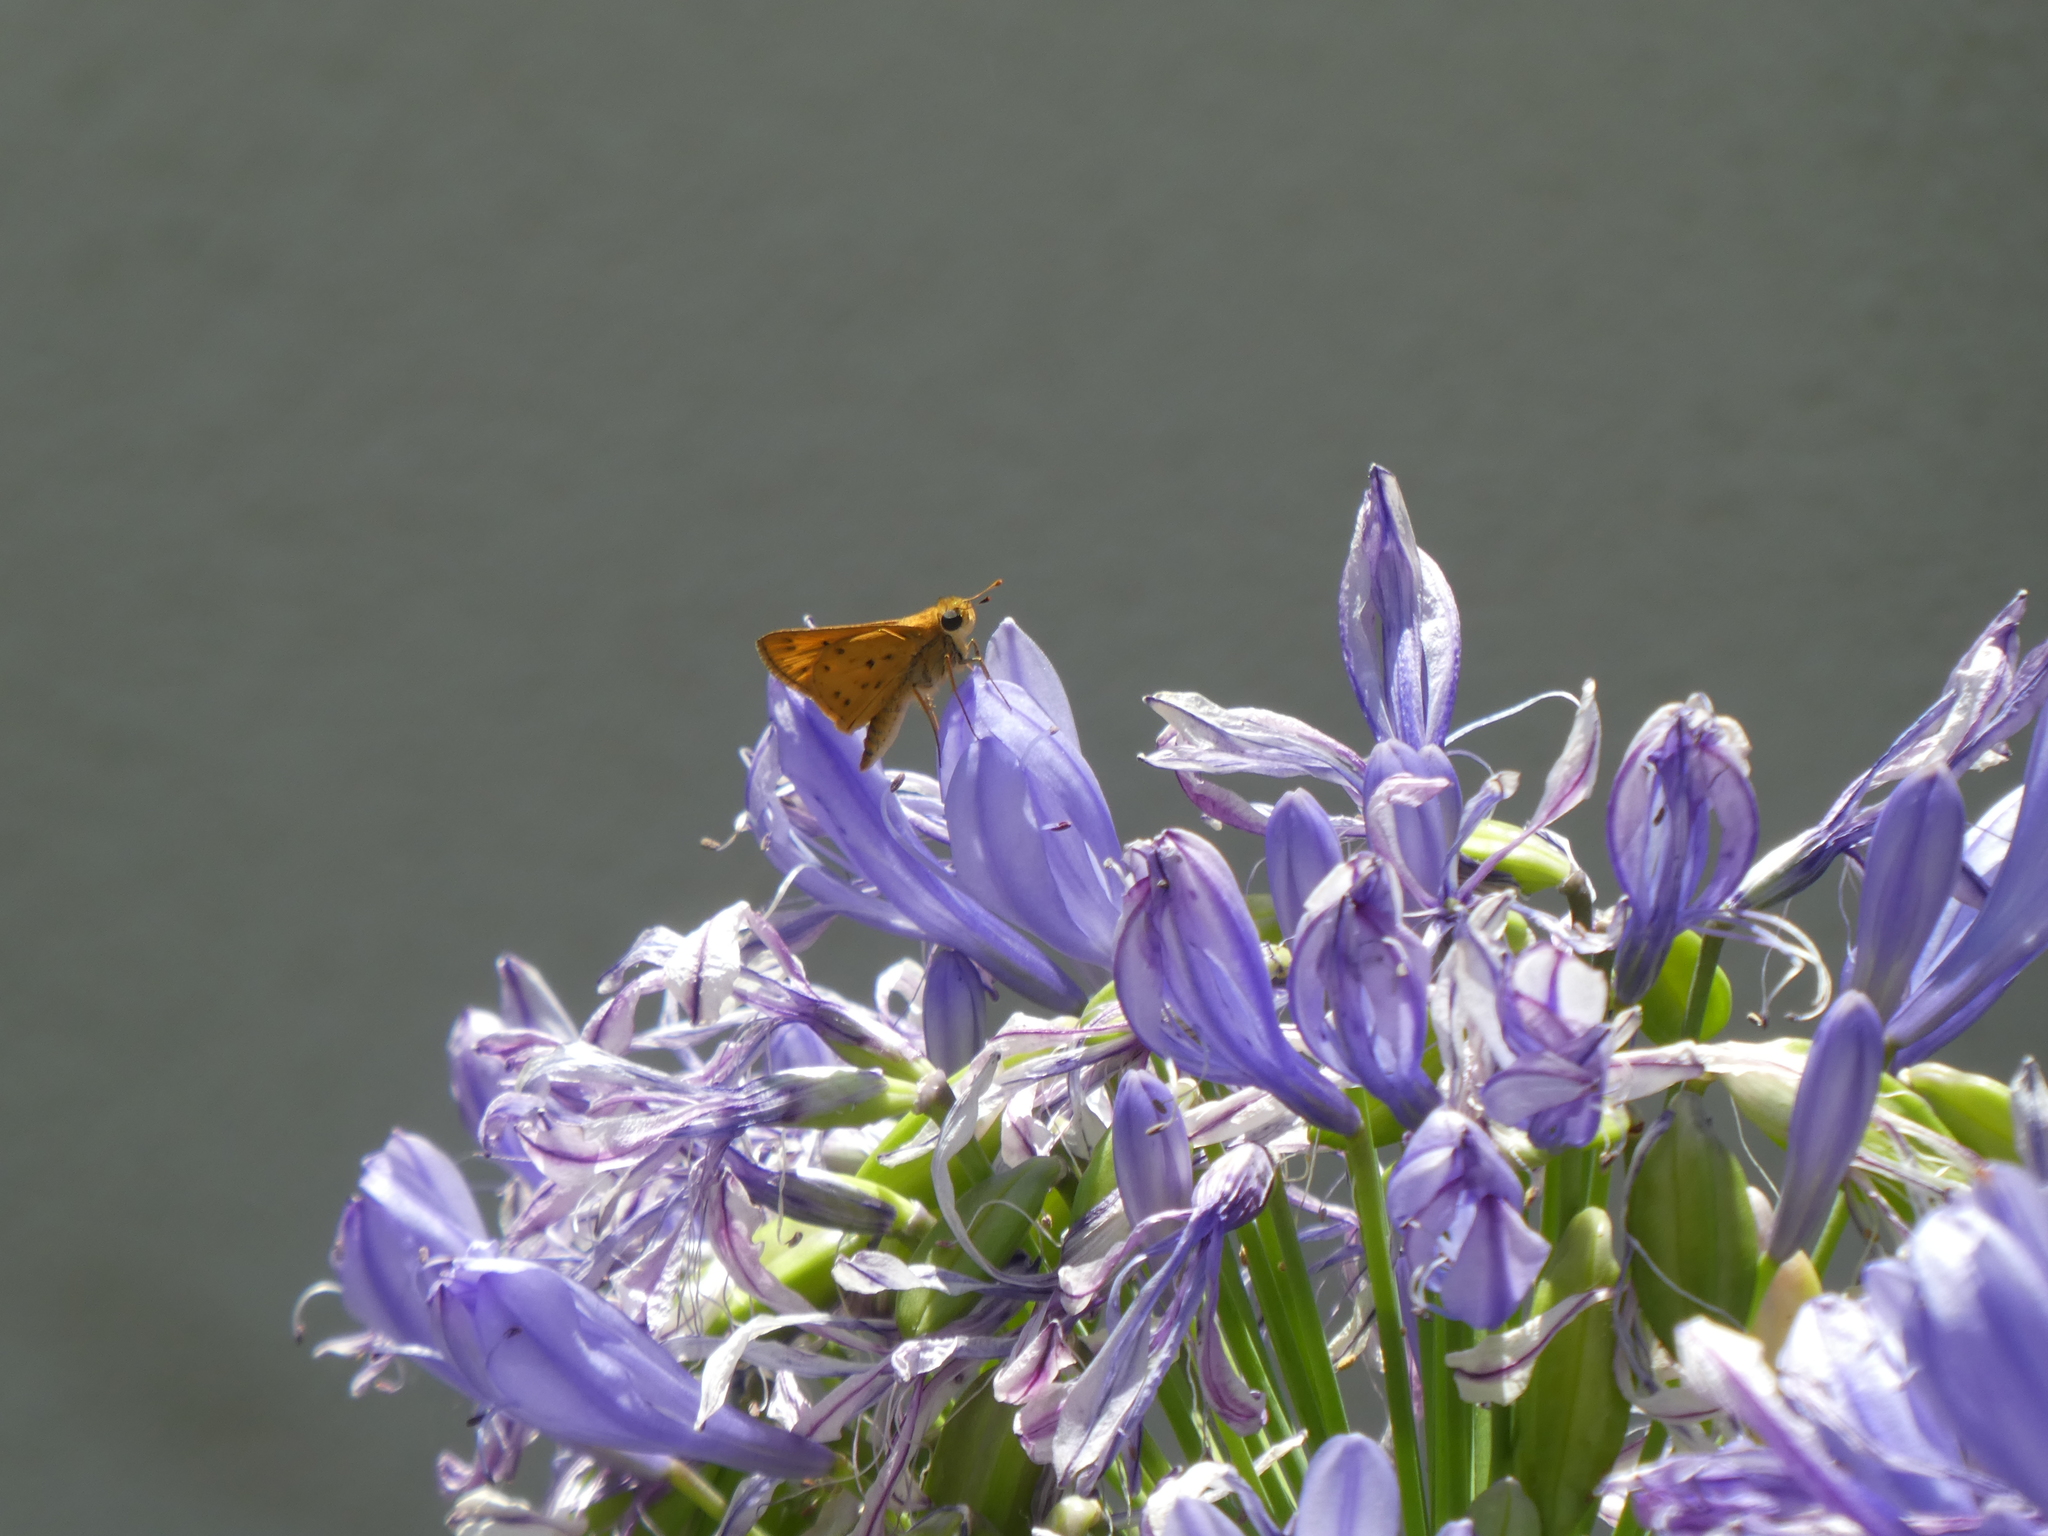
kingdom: Animalia
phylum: Arthropoda
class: Insecta
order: Lepidoptera
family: Hesperiidae
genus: Hylephila
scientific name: Hylephila phyleus
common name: Fiery skipper
